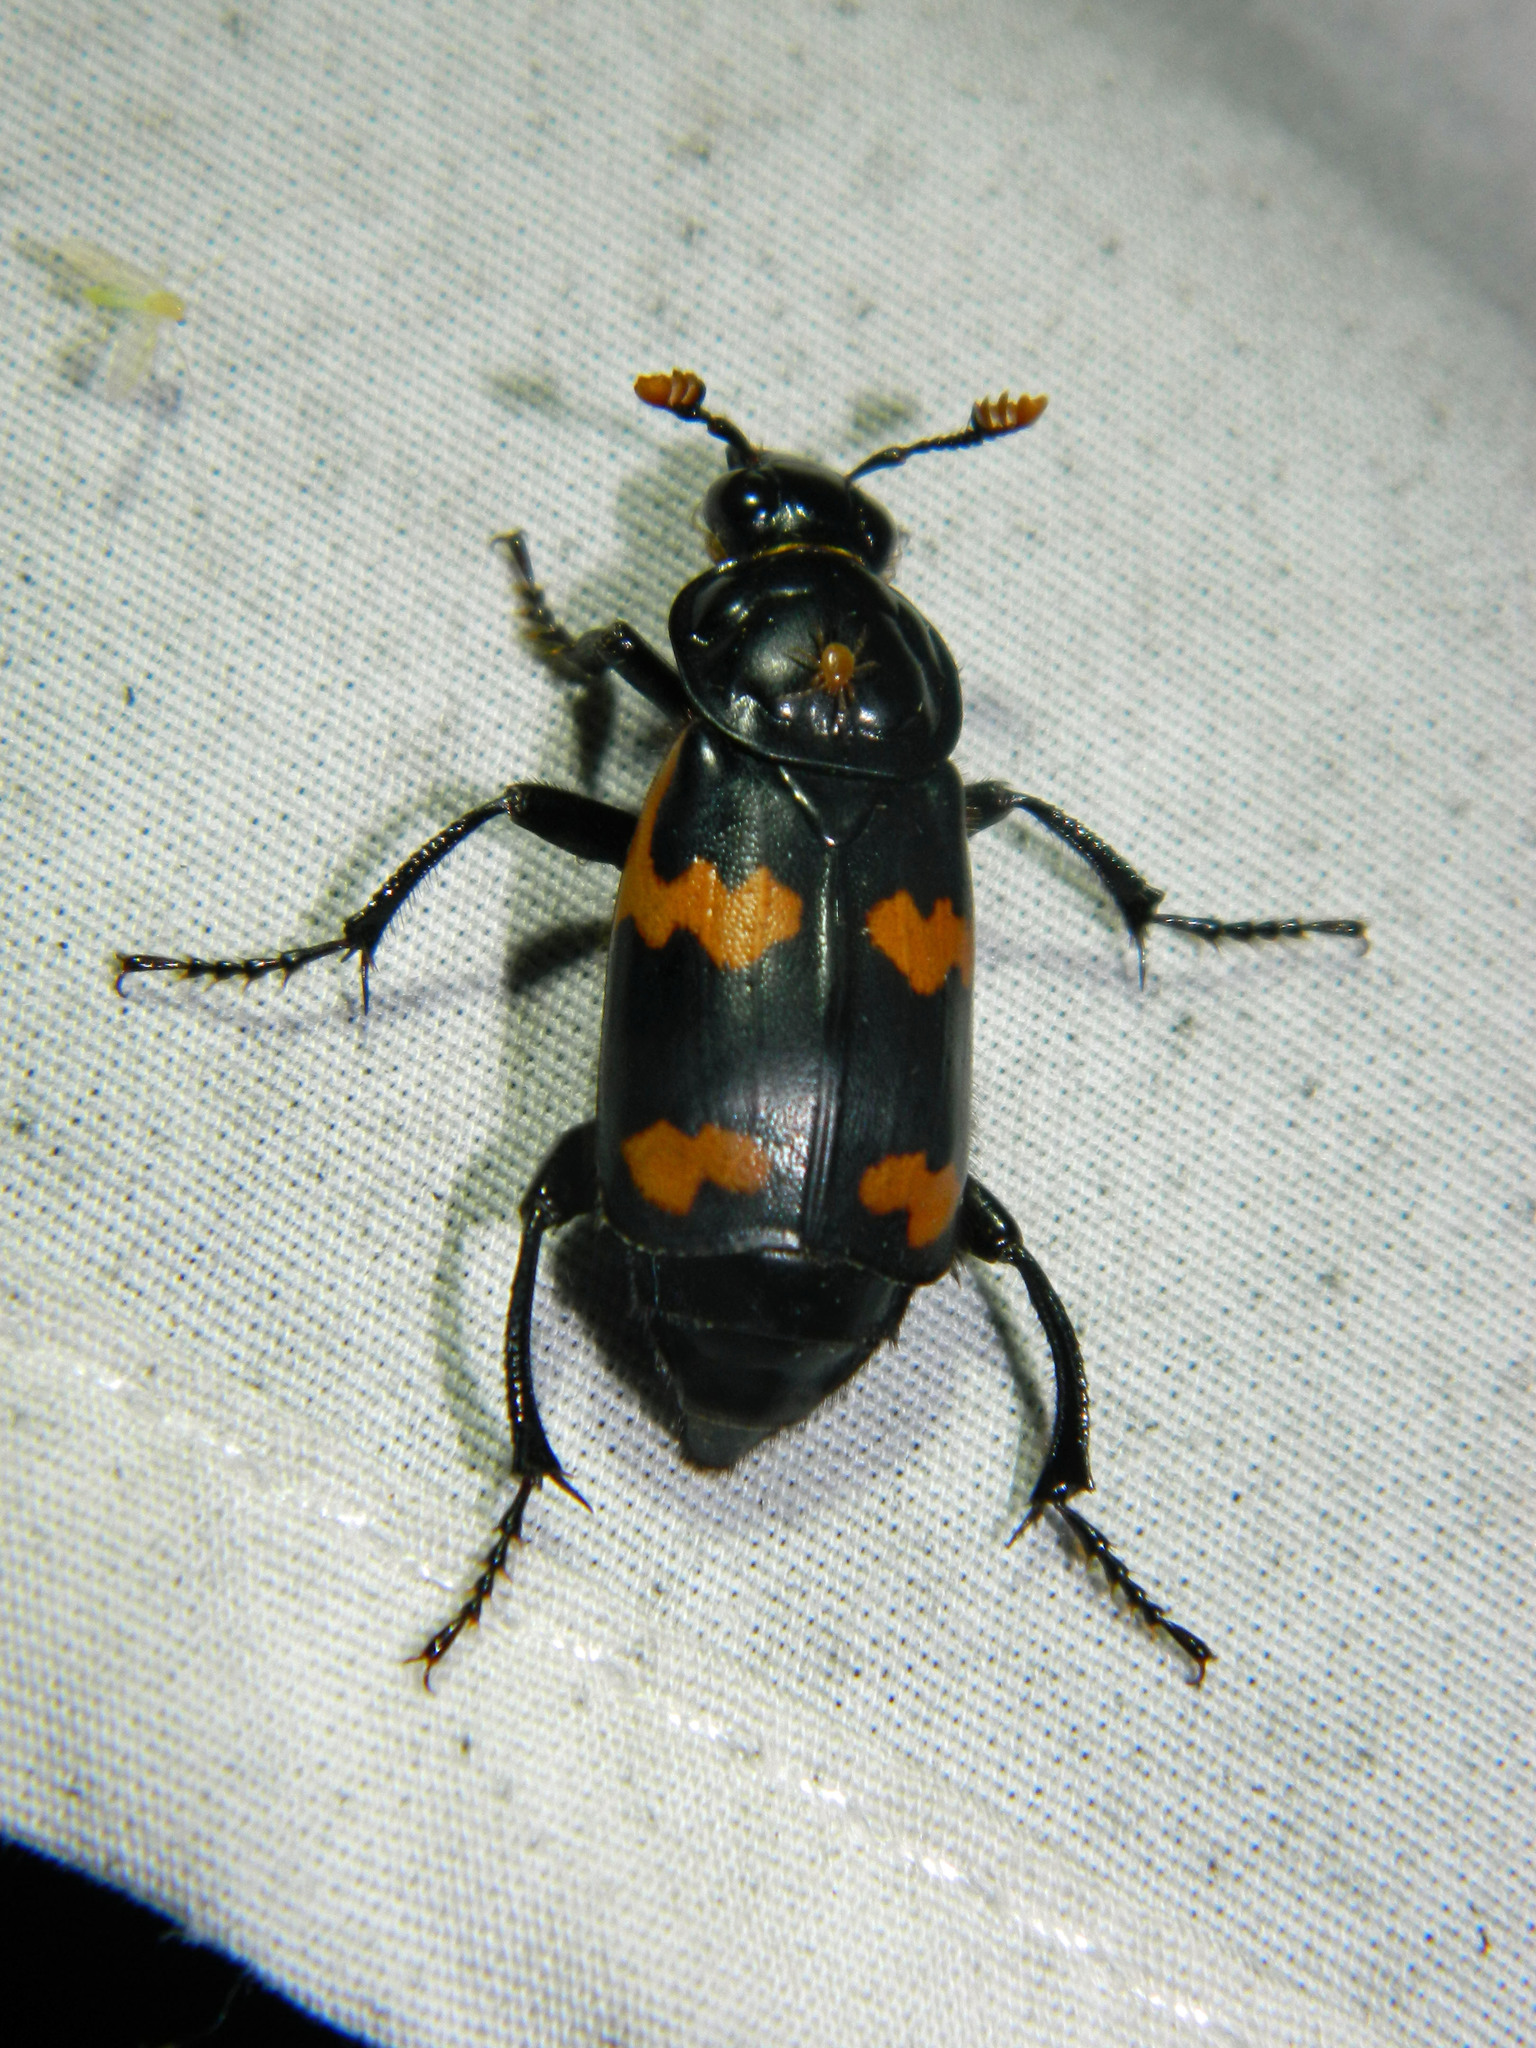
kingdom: Animalia
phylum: Arthropoda
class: Insecta
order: Coleoptera
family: Staphylinidae
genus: Nicrophorus
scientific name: Nicrophorus sayi
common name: Say's burying beetle
